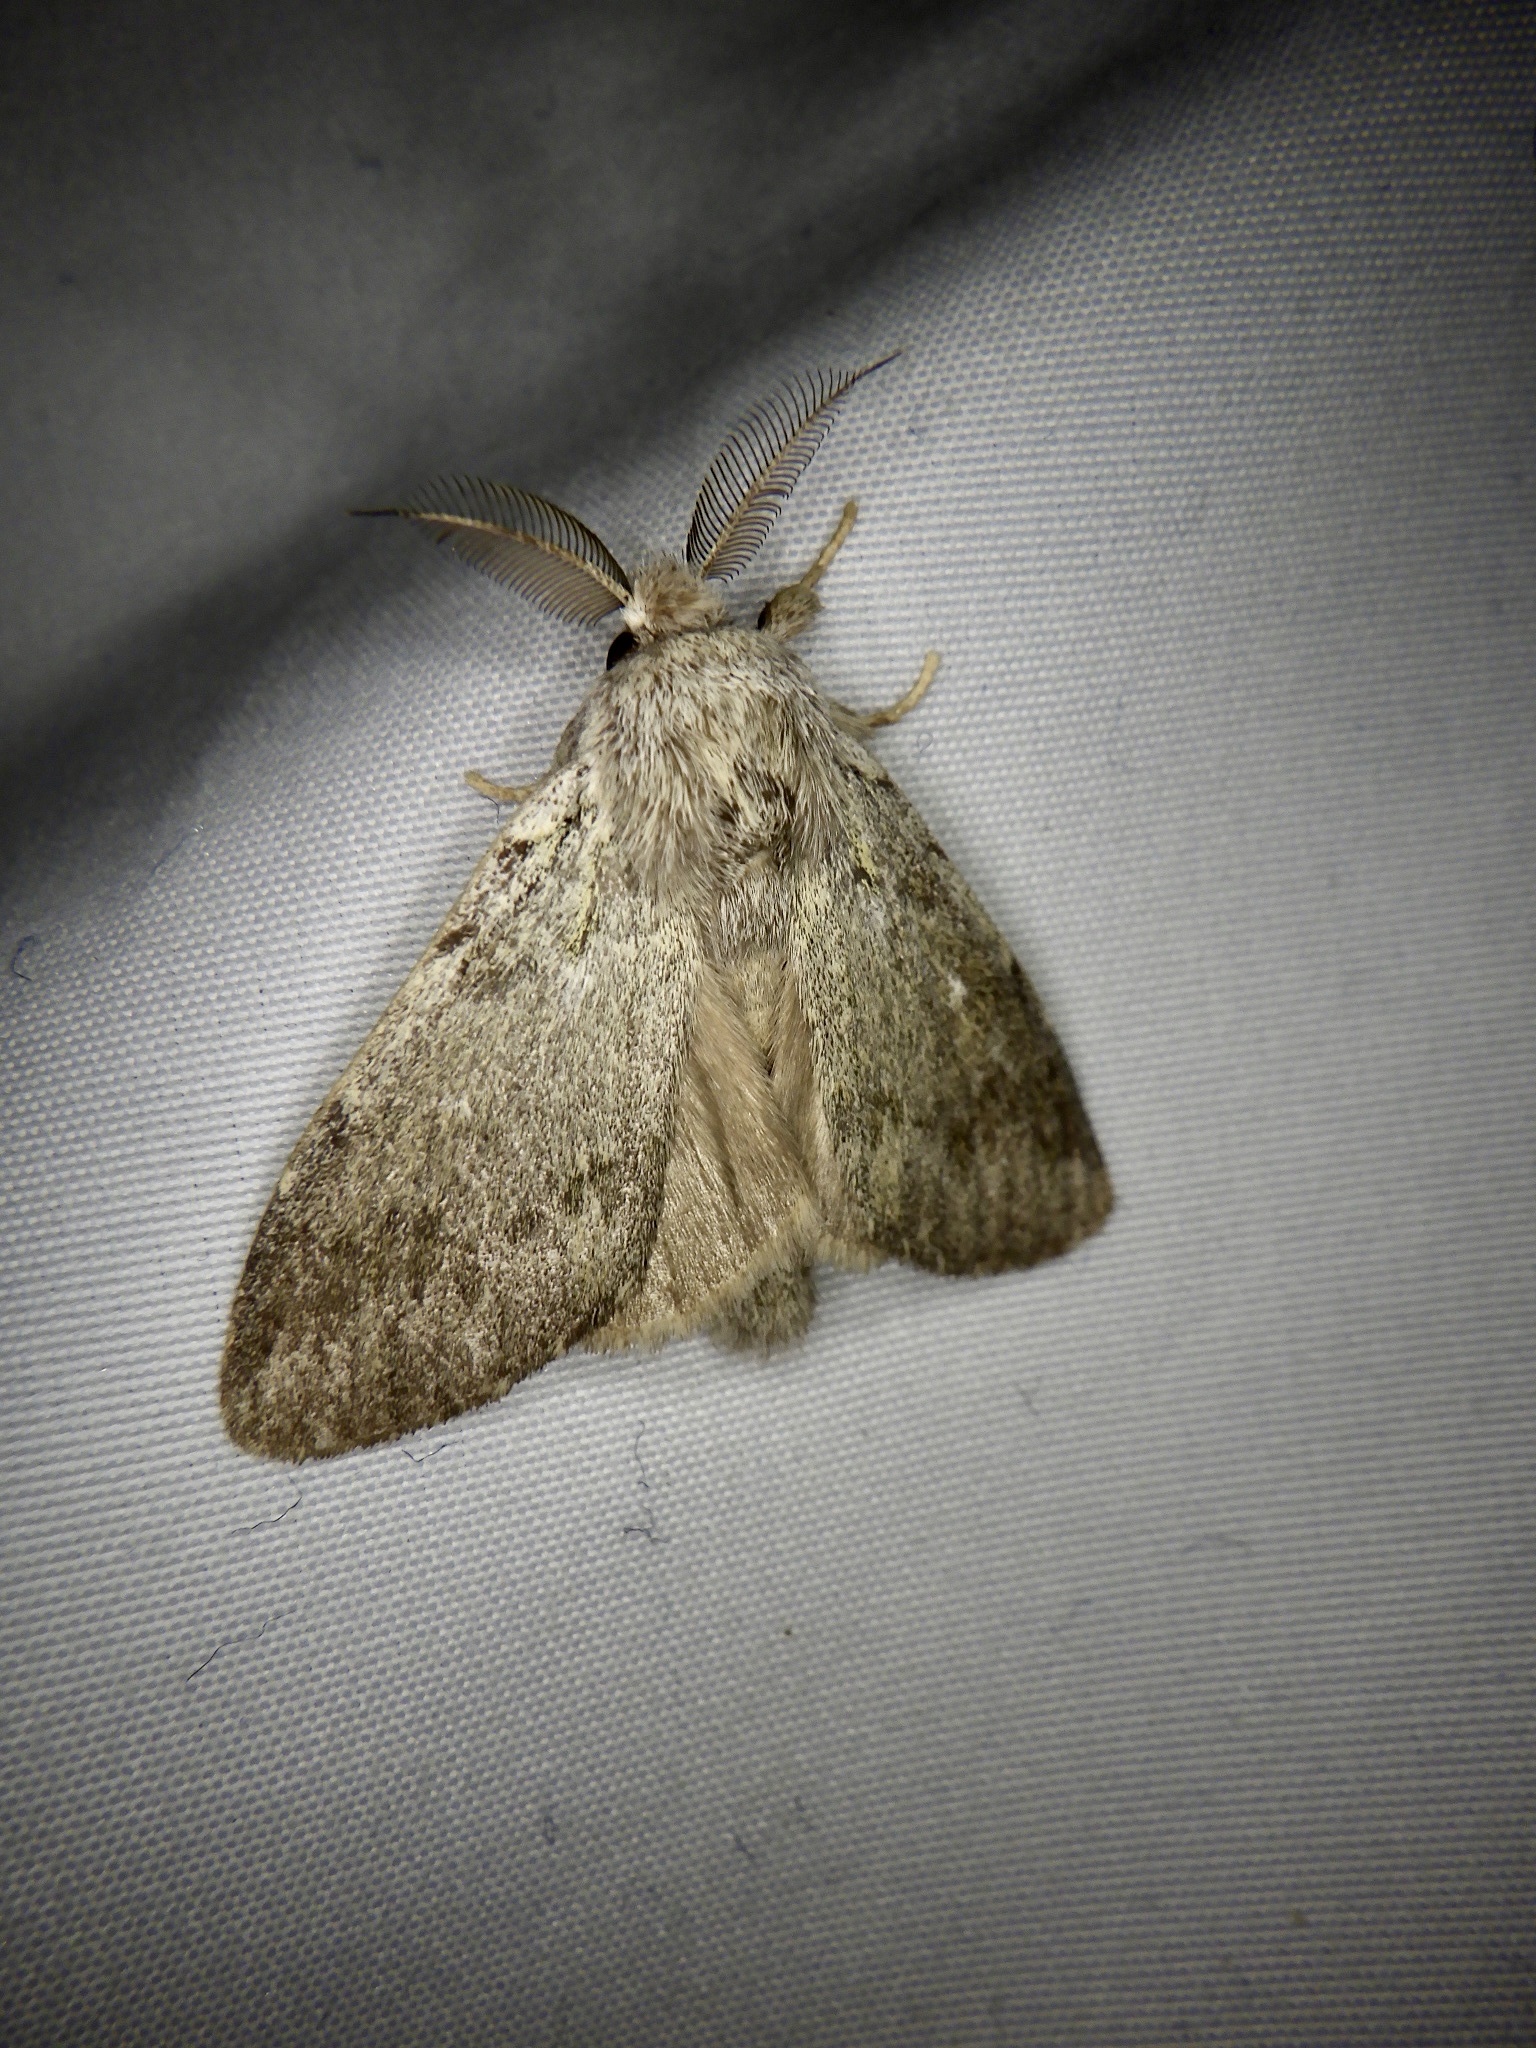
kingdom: Animalia
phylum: Arthropoda
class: Insecta
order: Lepidoptera
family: Notodontidae
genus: Syntypistis
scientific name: Syntypistis
